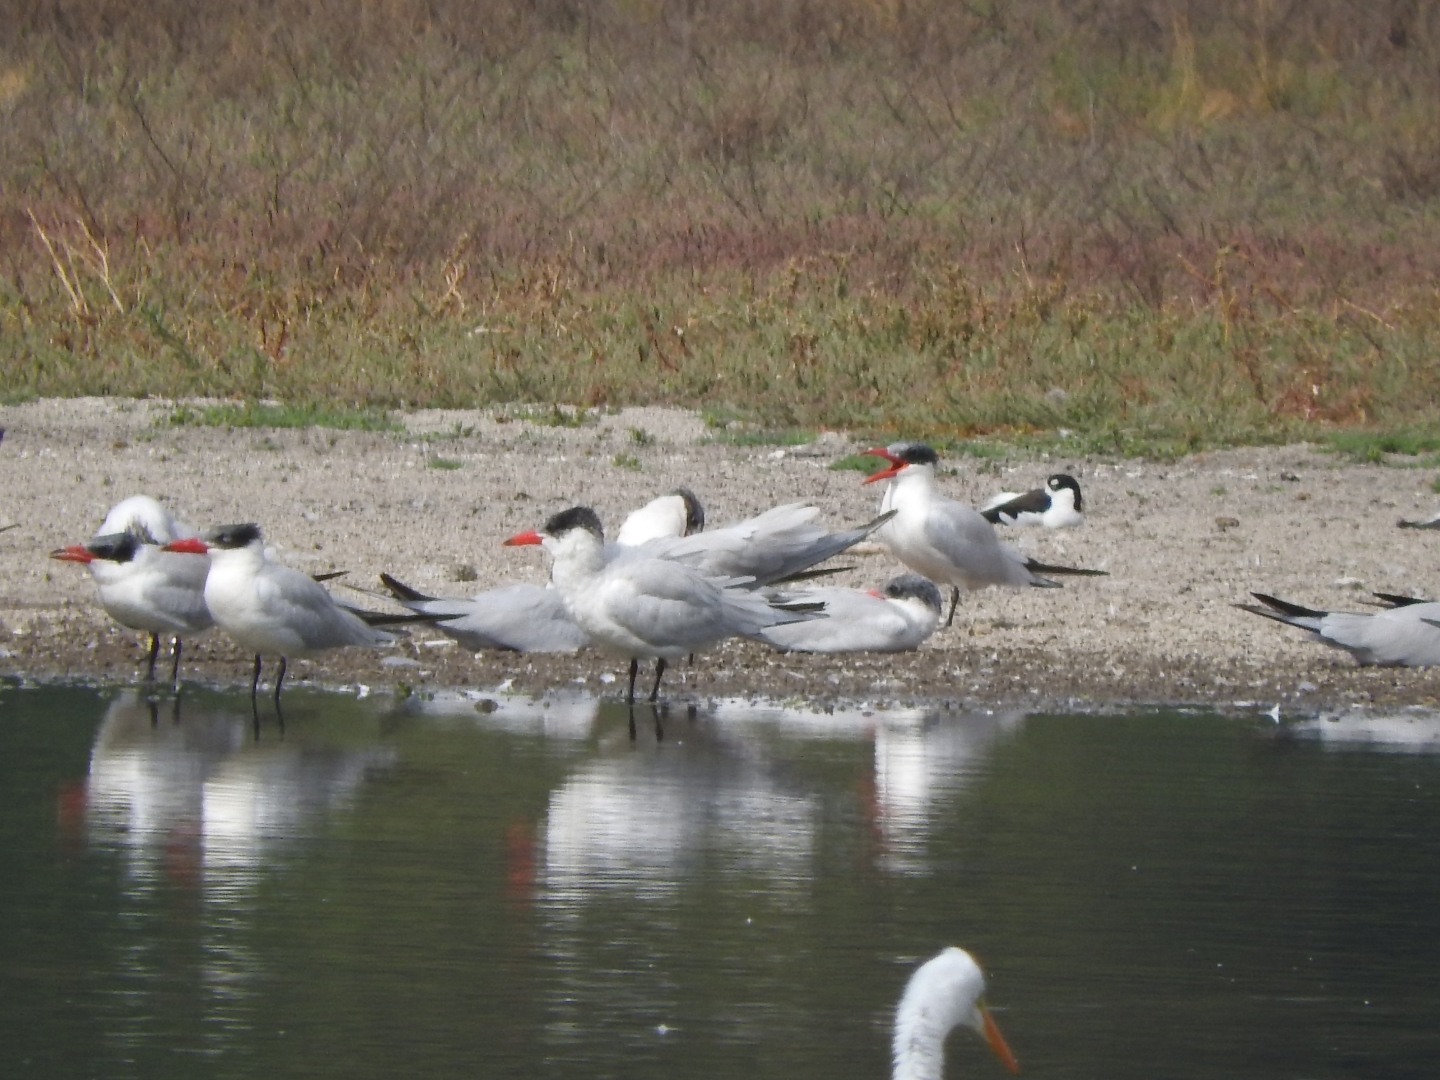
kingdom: Animalia
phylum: Chordata
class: Aves
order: Charadriiformes
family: Laridae
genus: Hydroprogne
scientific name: Hydroprogne caspia
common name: Caspian tern
